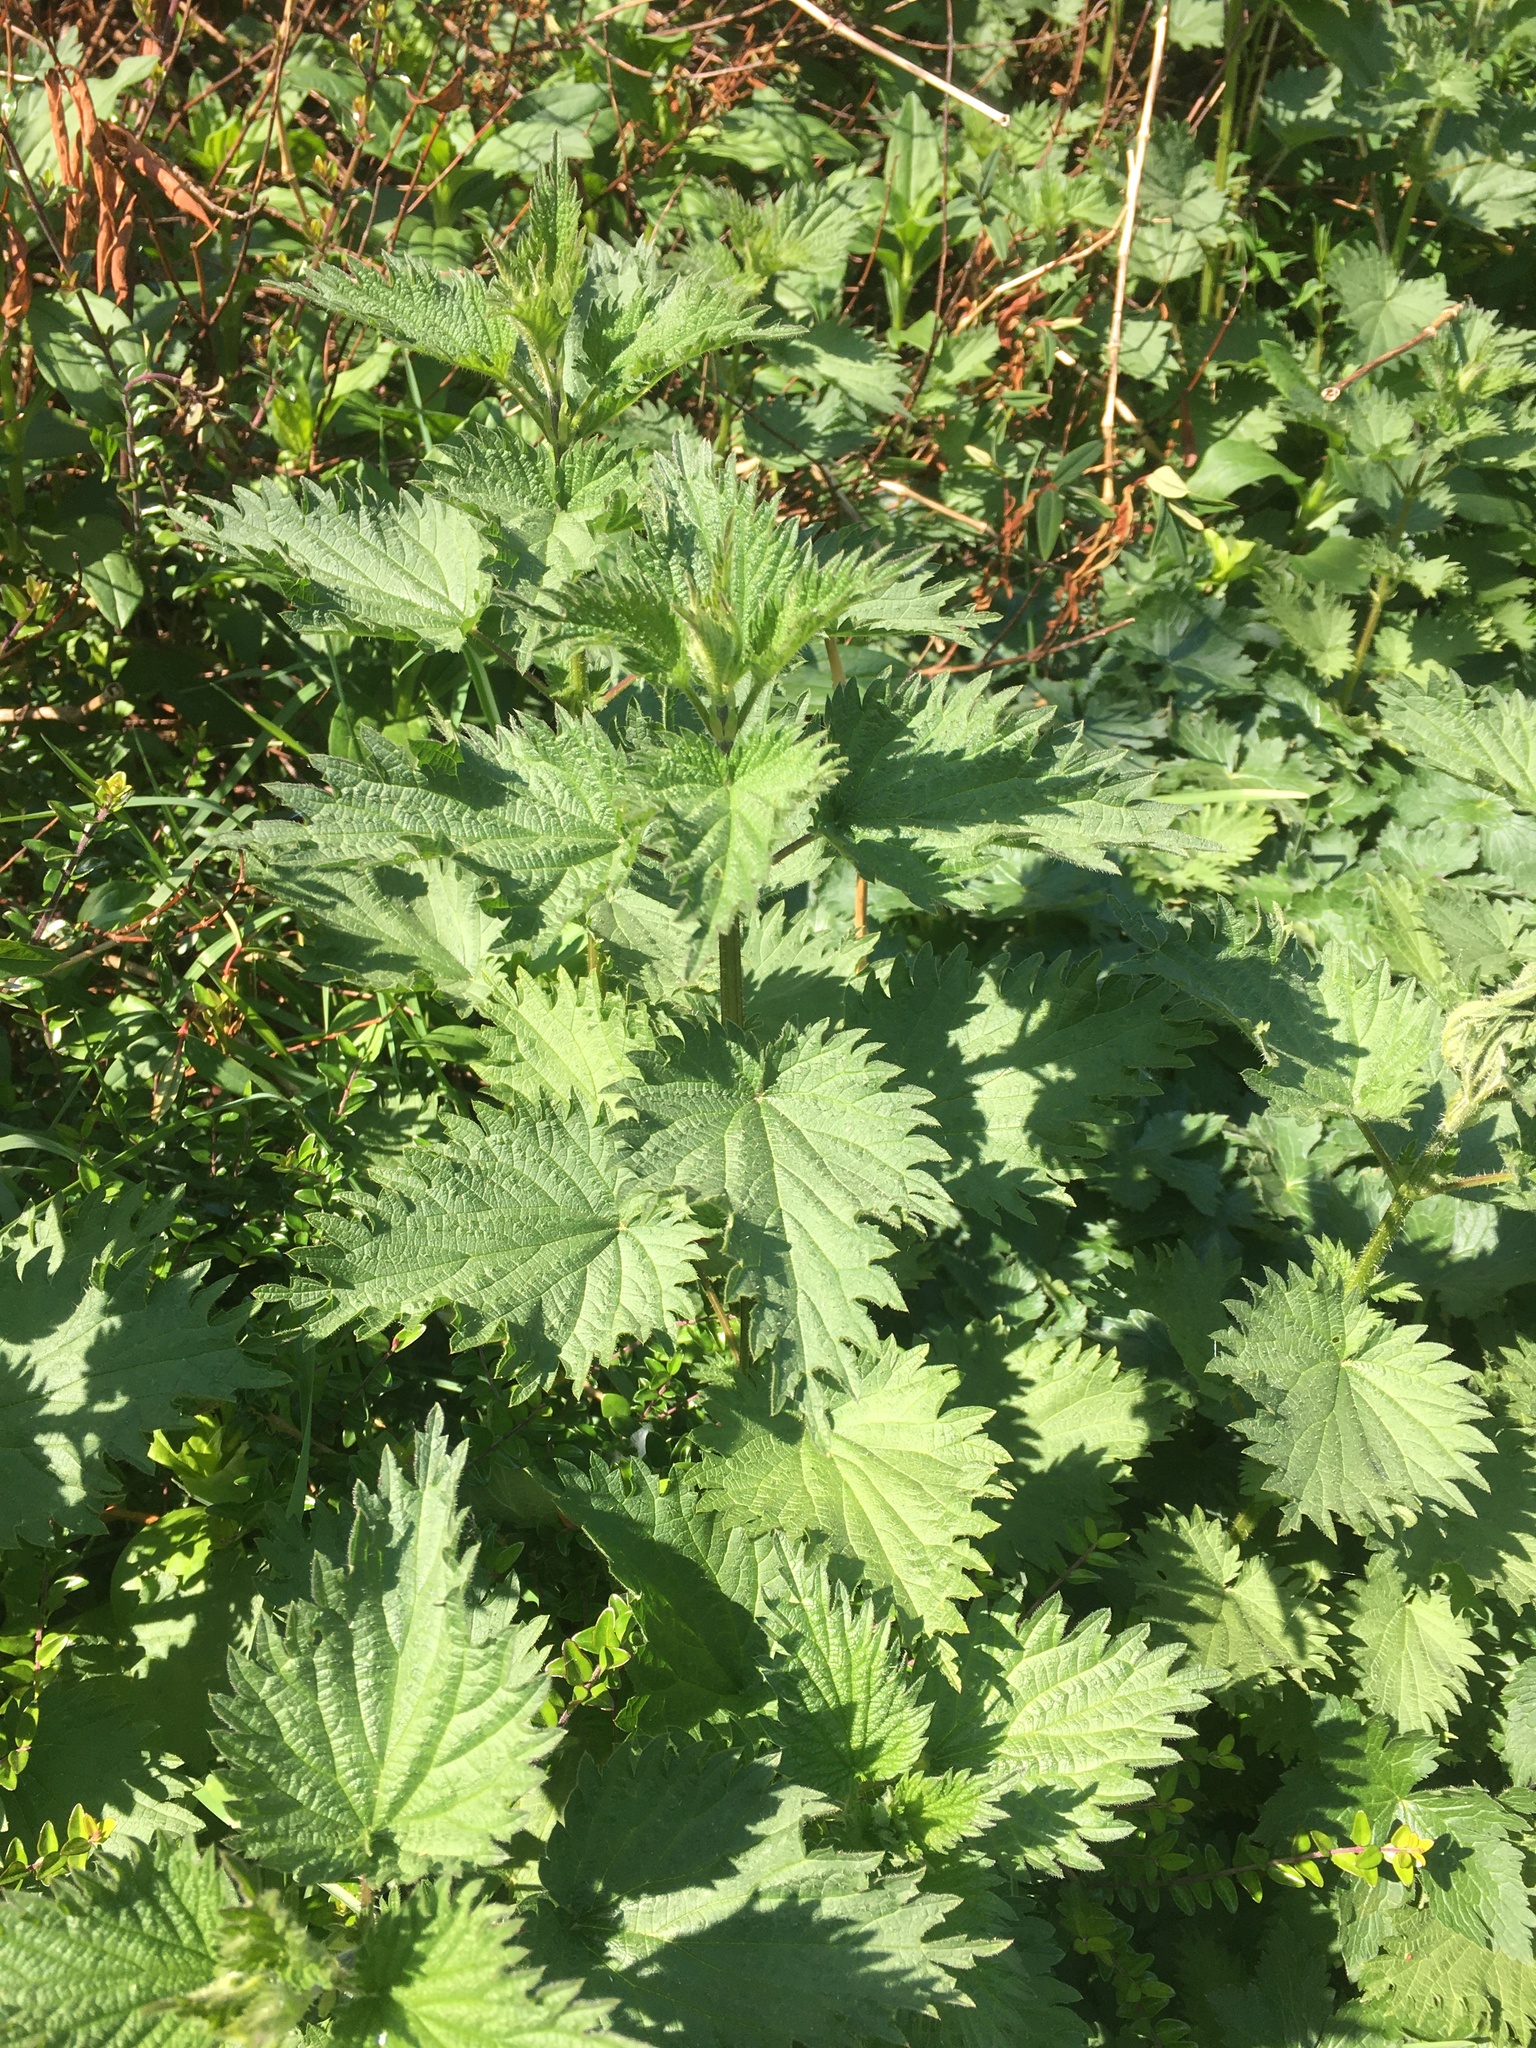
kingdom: Plantae
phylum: Tracheophyta
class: Magnoliopsida
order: Rosales
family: Urticaceae
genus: Urtica
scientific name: Urtica dioica
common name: Common nettle
